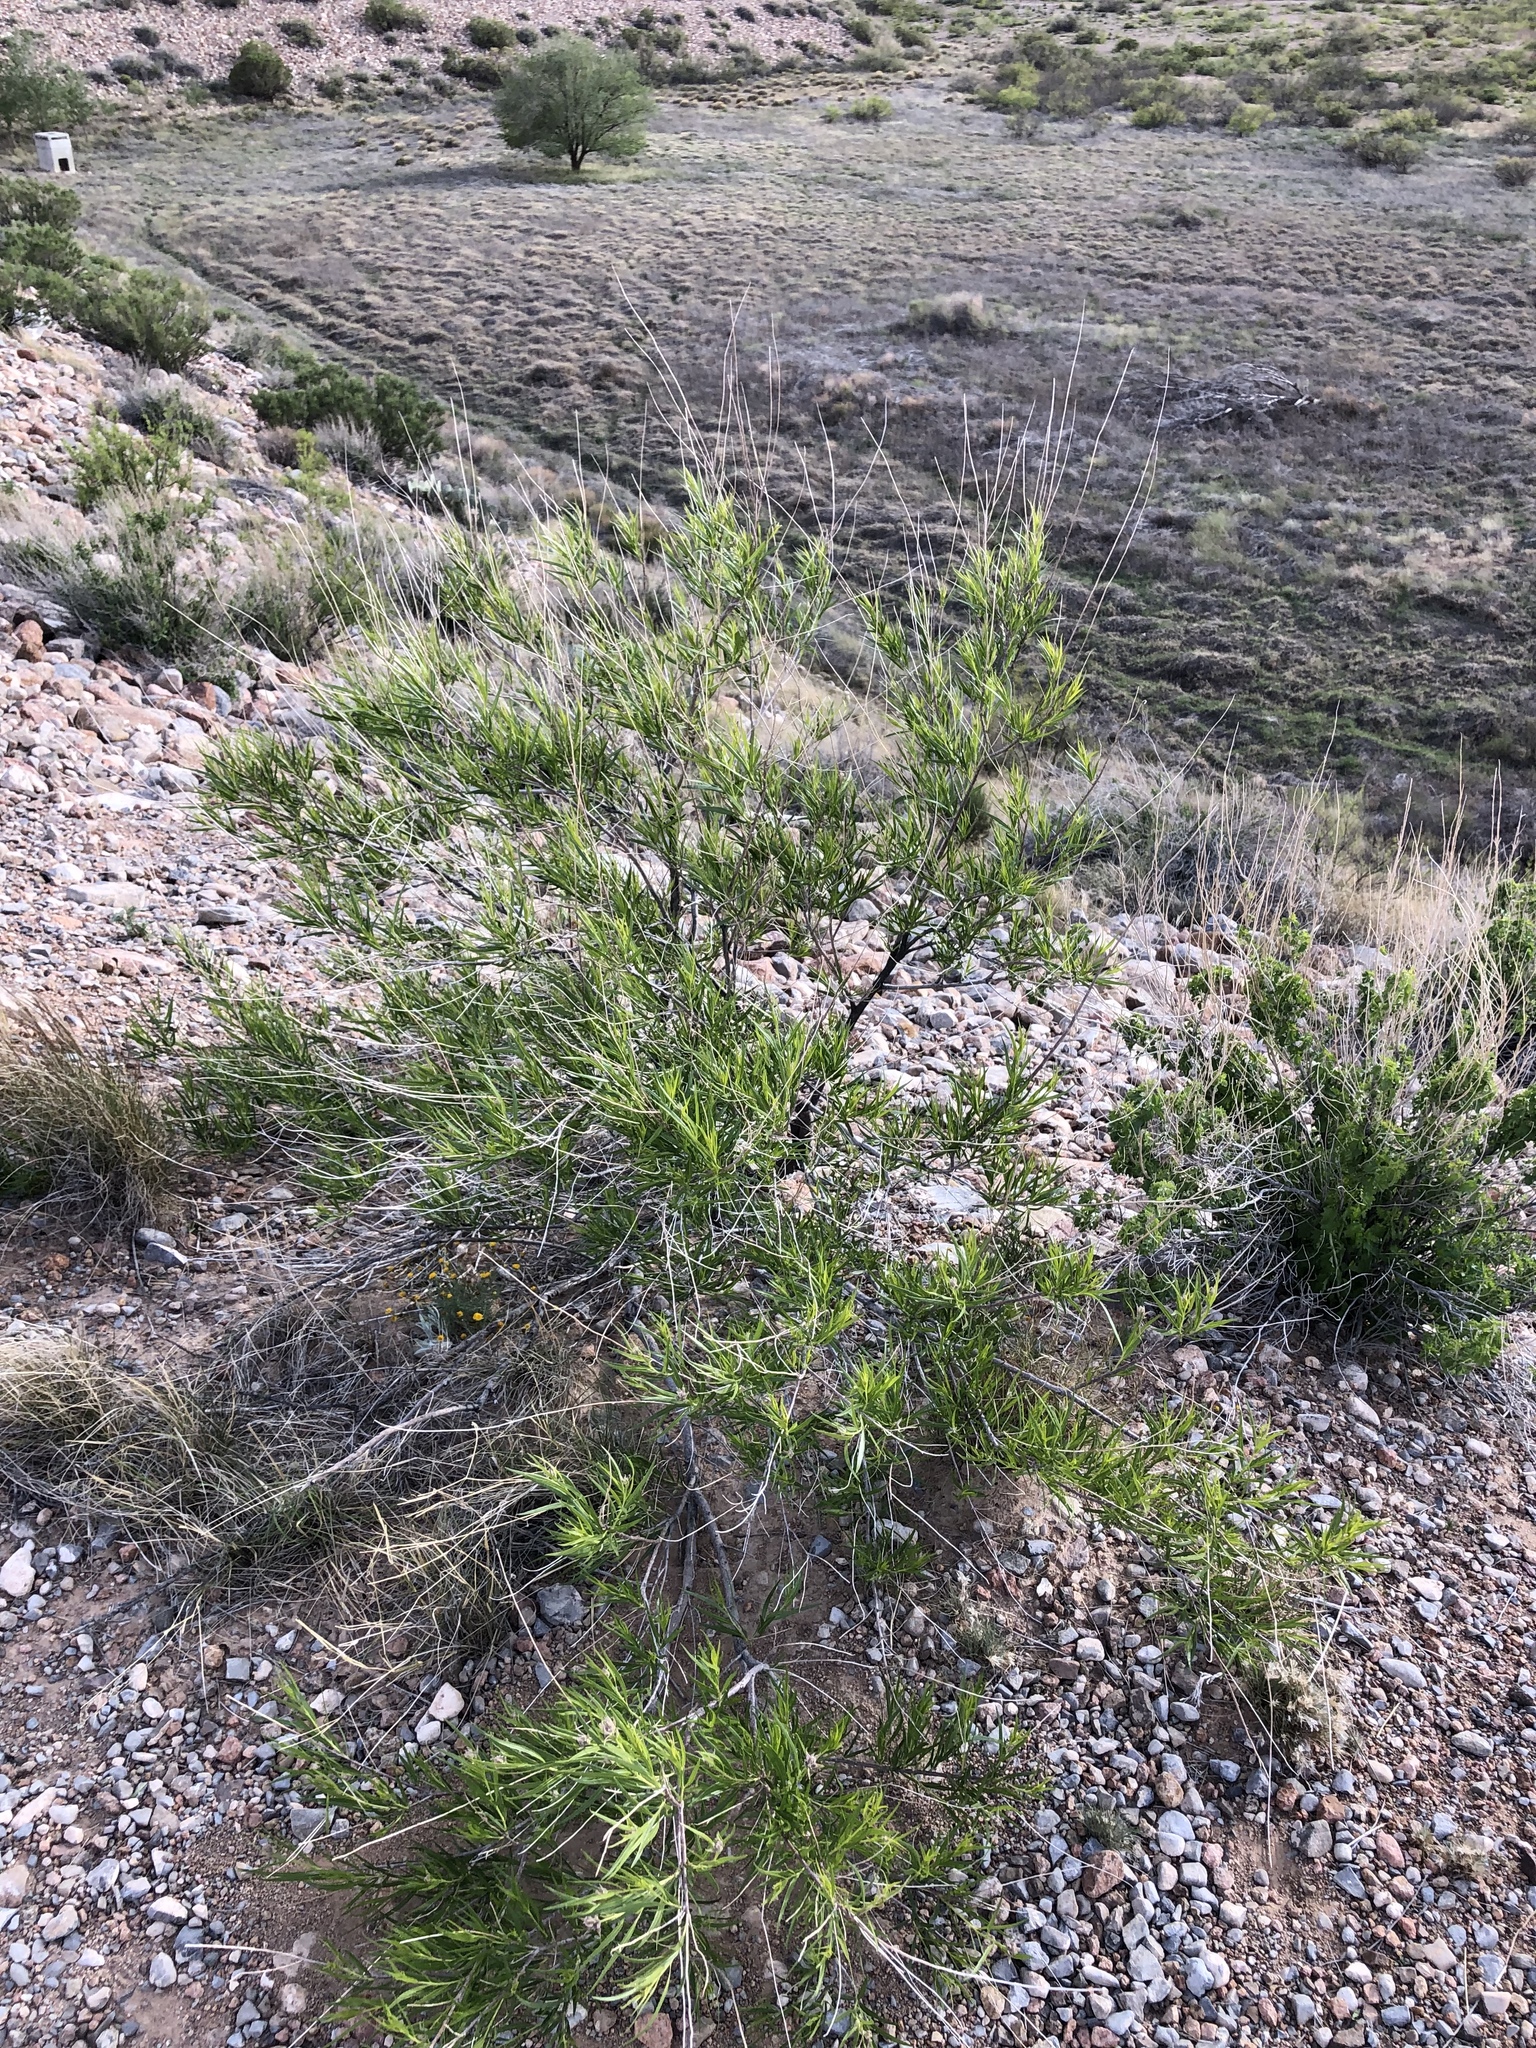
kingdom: Plantae
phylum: Tracheophyta
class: Magnoliopsida
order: Lamiales
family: Bignoniaceae
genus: Chilopsis
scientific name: Chilopsis linearis
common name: Desert-willow
